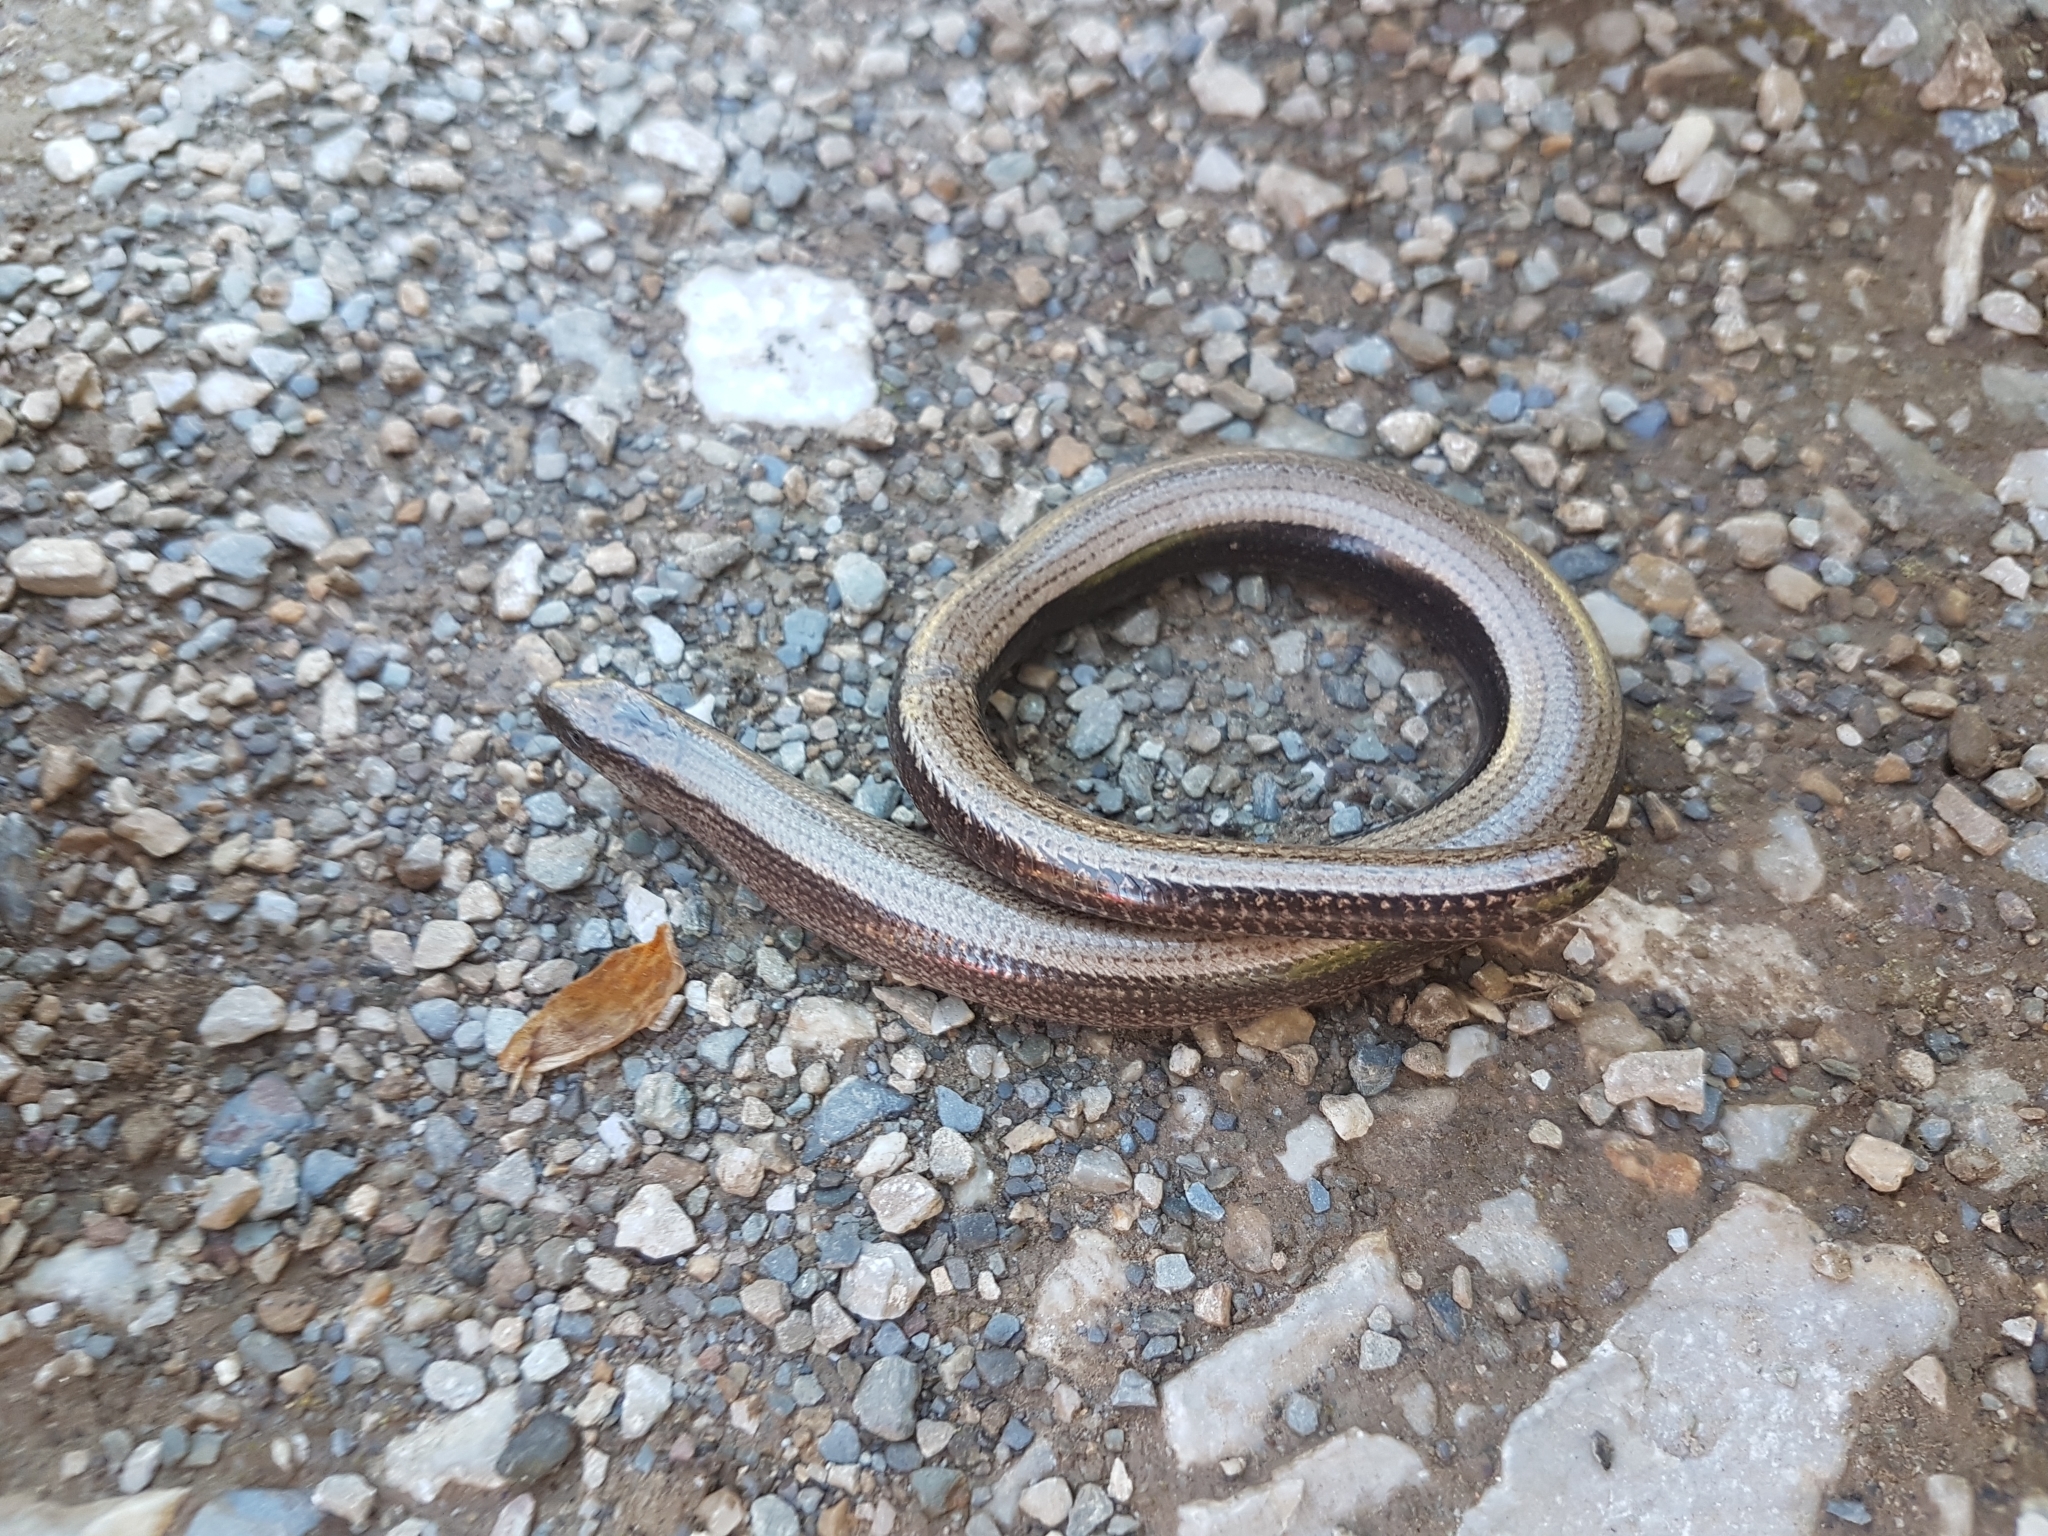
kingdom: Animalia
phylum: Chordata
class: Squamata
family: Anguidae
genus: Anguis
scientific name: Anguis fragilis
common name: Slow worm
